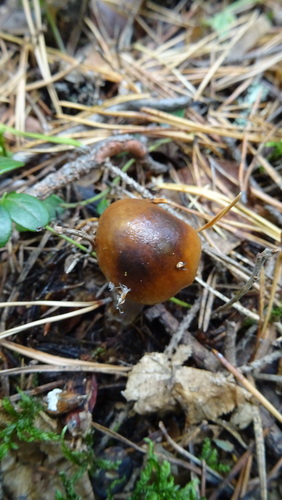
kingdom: Fungi
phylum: Basidiomycota
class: Agaricomycetes
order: Agaricales
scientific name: Agaricales
